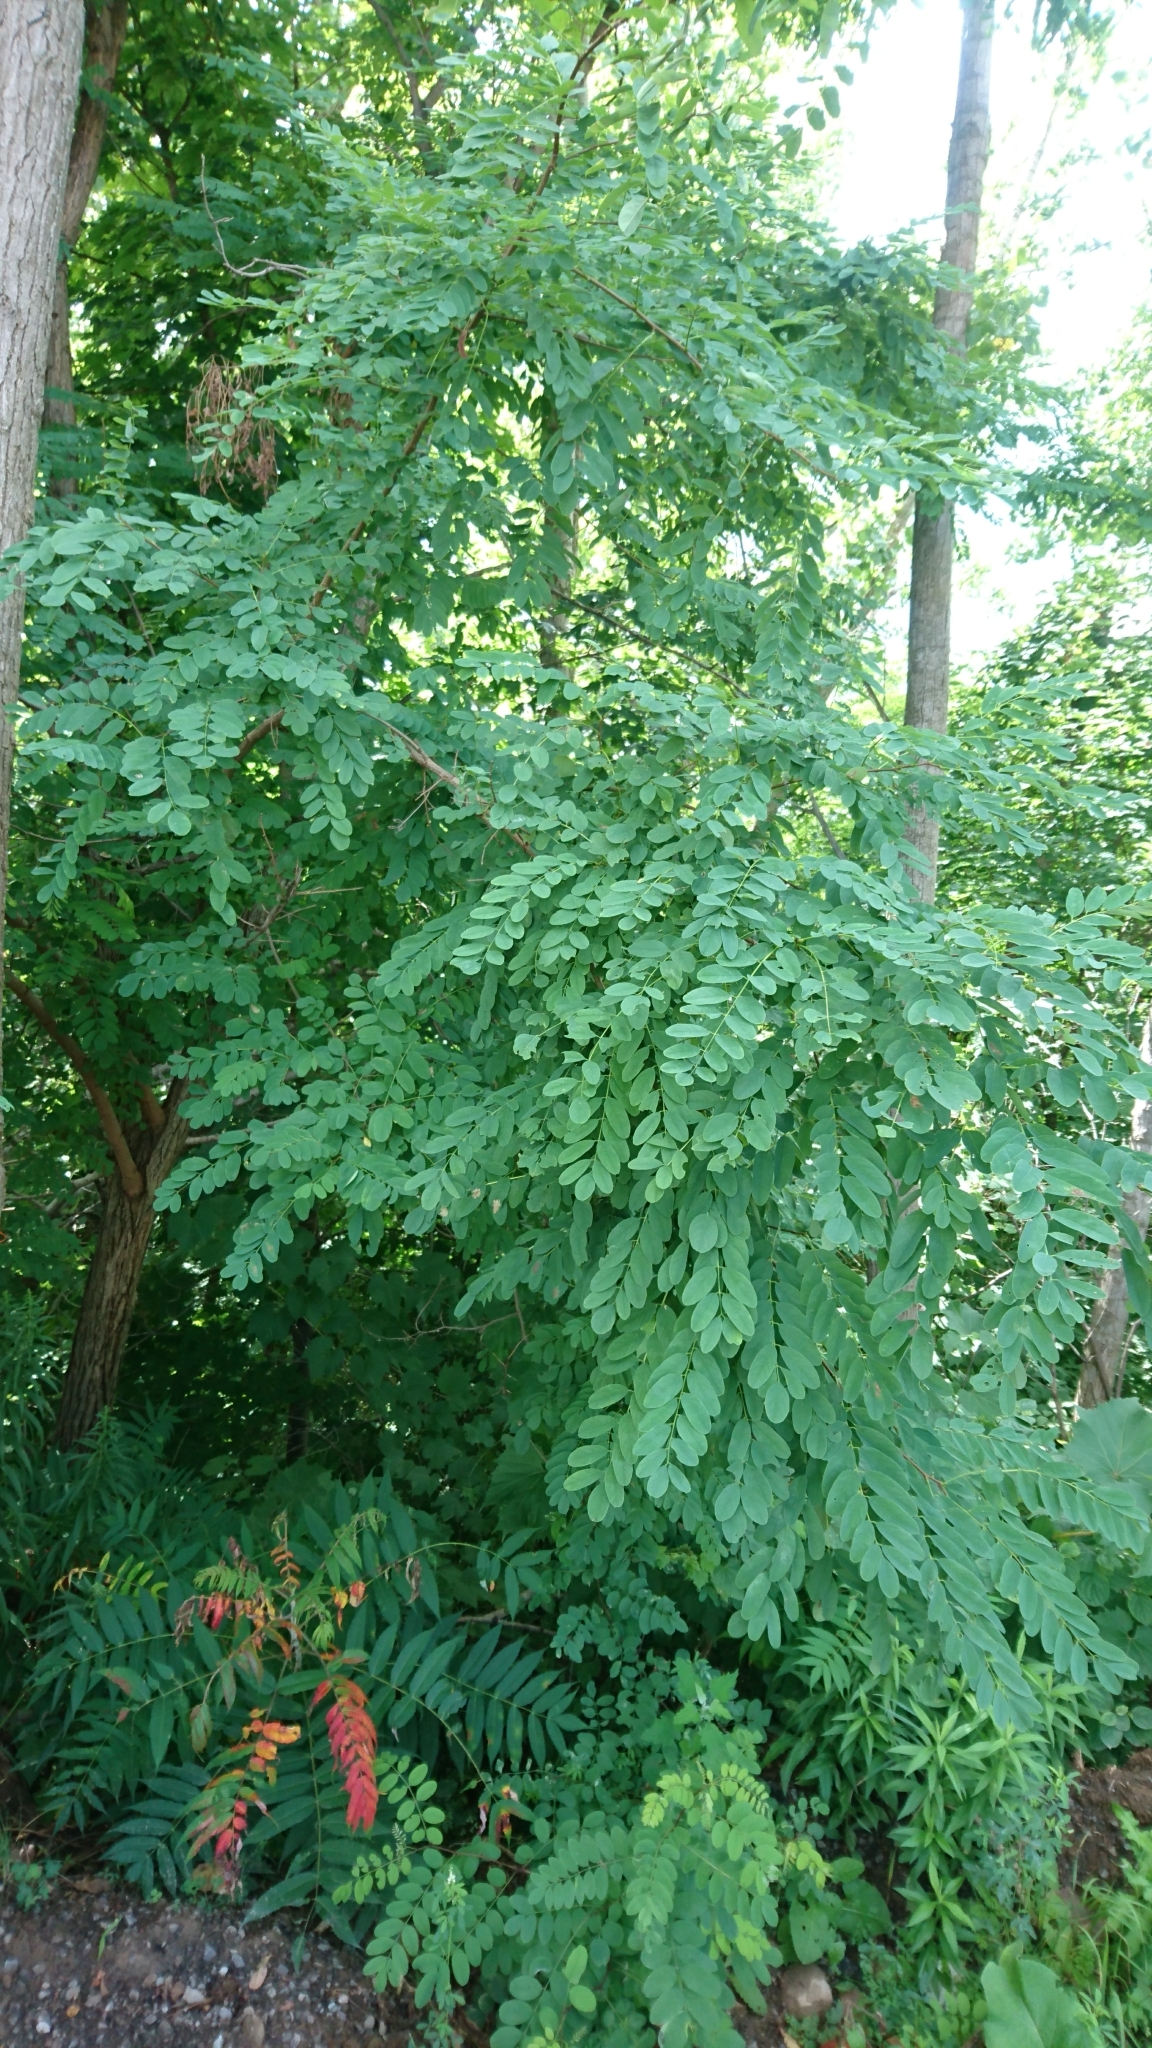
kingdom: Plantae
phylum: Tracheophyta
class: Magnoliopsida
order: Fabales
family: Fabaceae
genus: Robinia
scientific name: Robinia pseudoacacia
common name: Black locust
